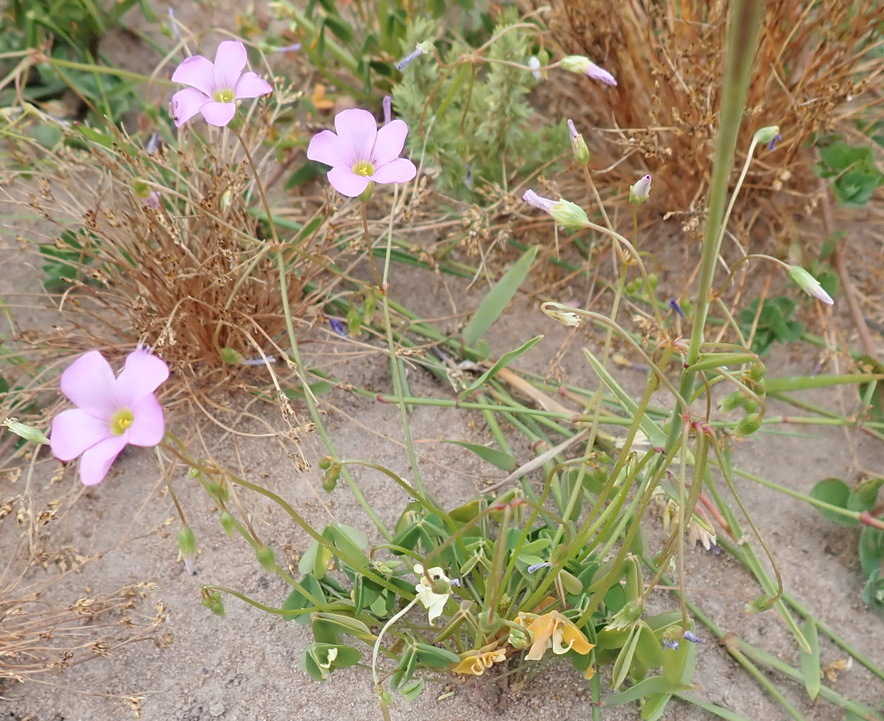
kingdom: Plantae
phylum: Tracheophyta
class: Magnoliopsida
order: Oxalidales
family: Oxalidaceae
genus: Oxalis
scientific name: Oxalis caprina
